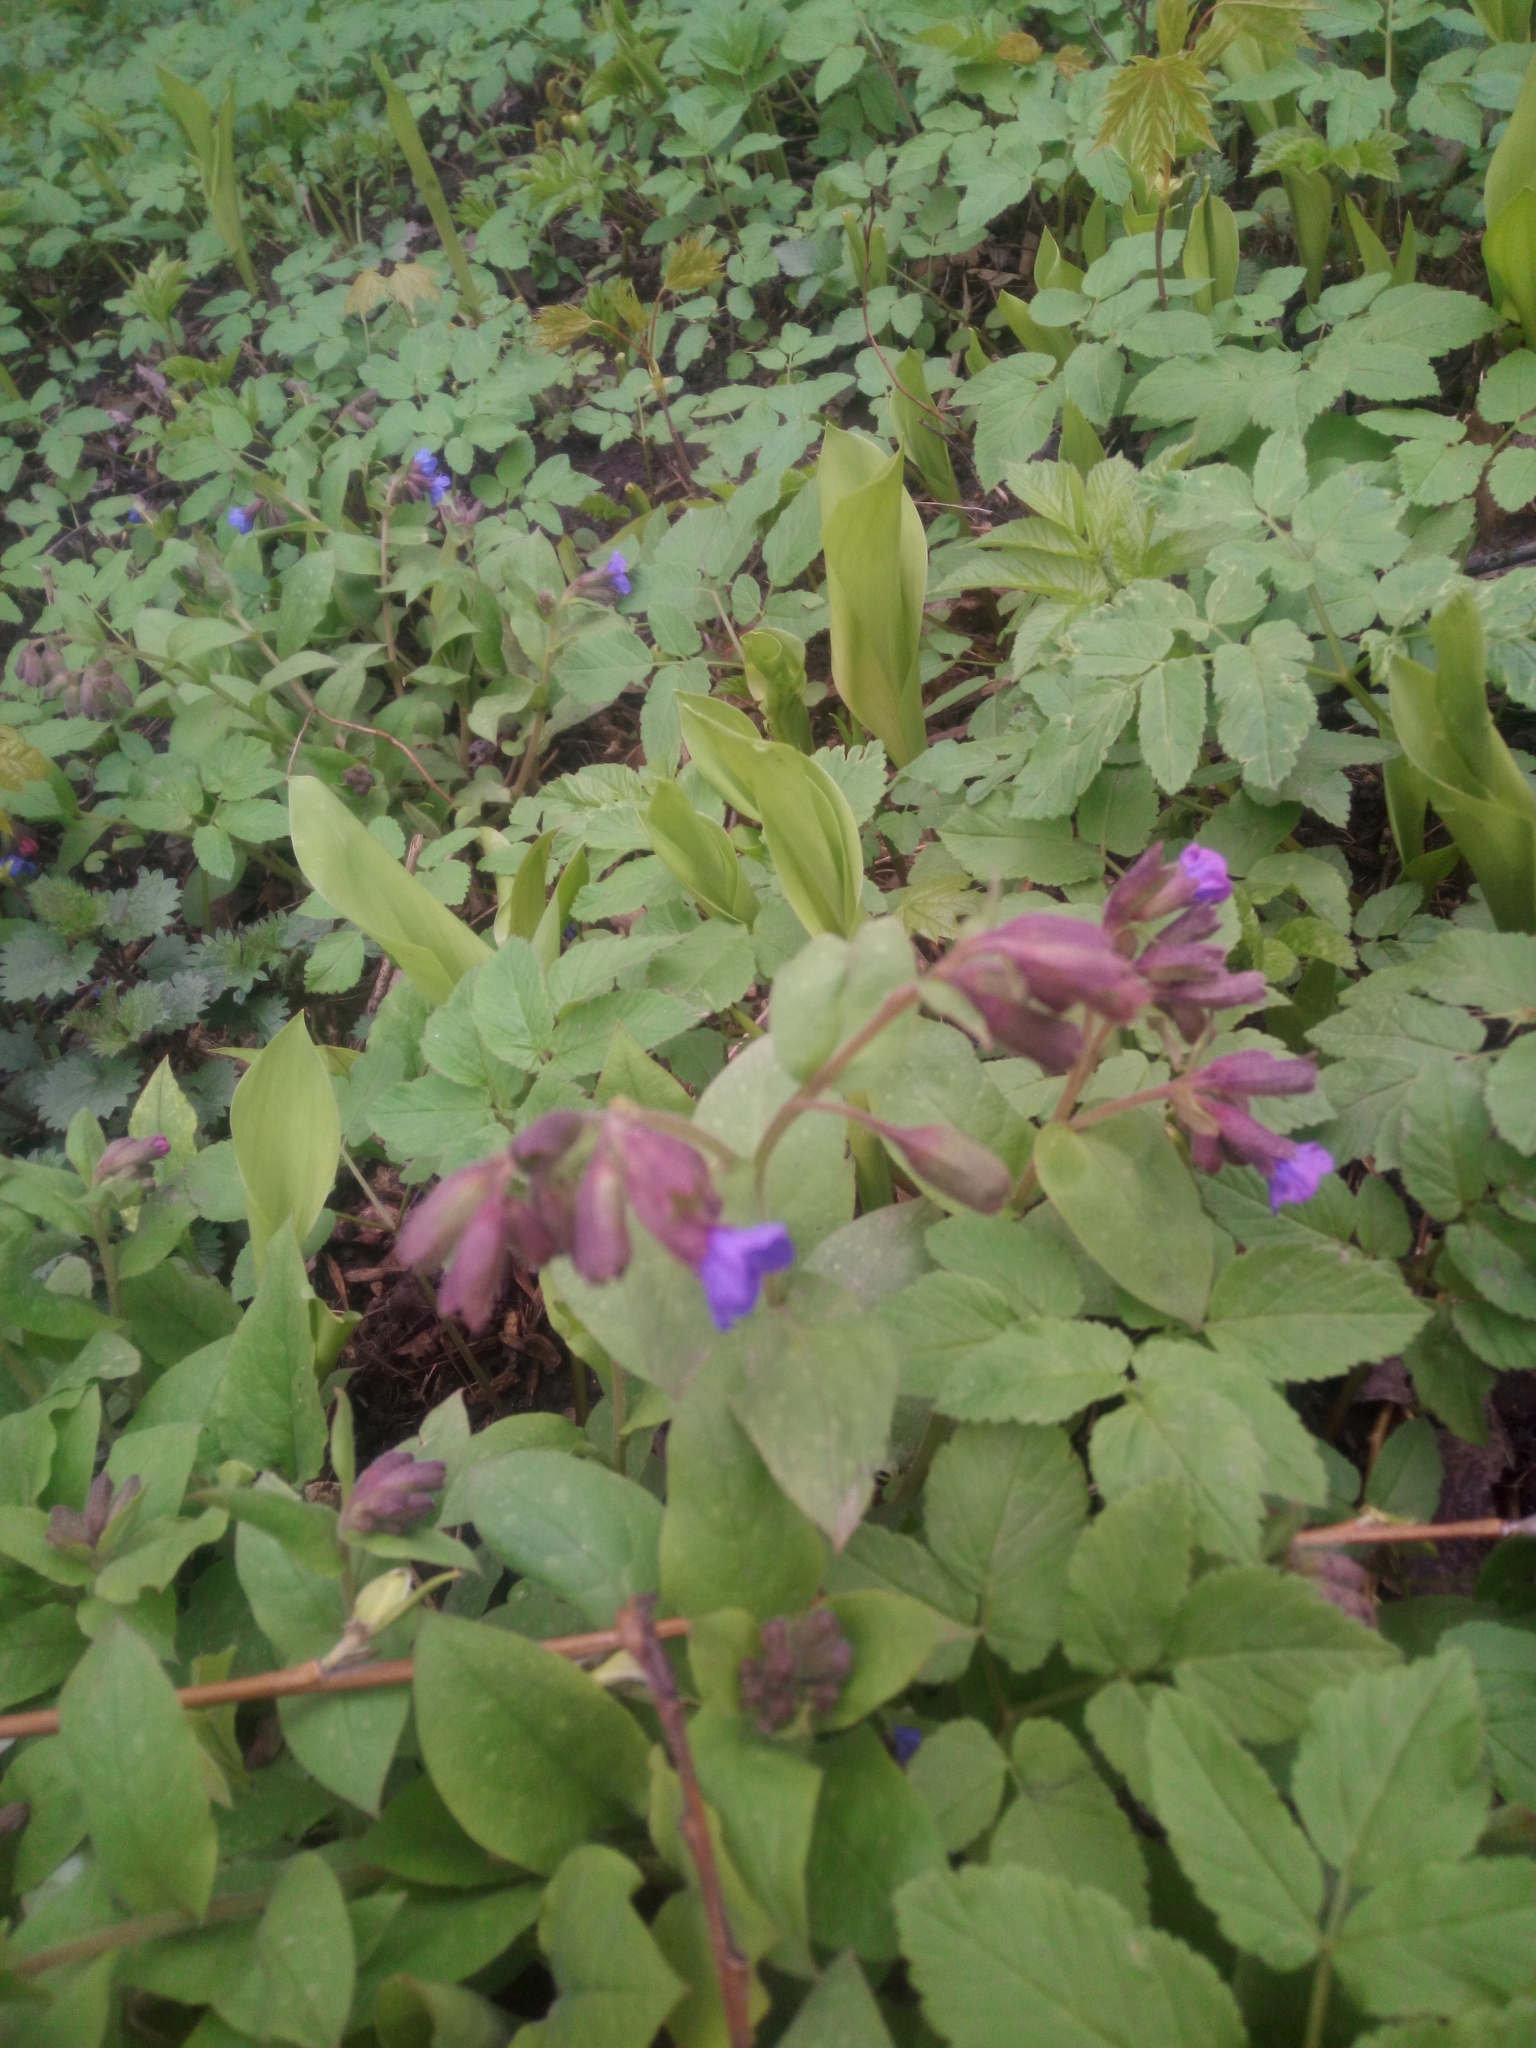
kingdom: Plantae
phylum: Tracheophyta
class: Magnoliopsida
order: Boraginales
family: Boraginaceae
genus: Pulmonaria
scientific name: Pulmonaria obscura
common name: Suffolk lungwort
